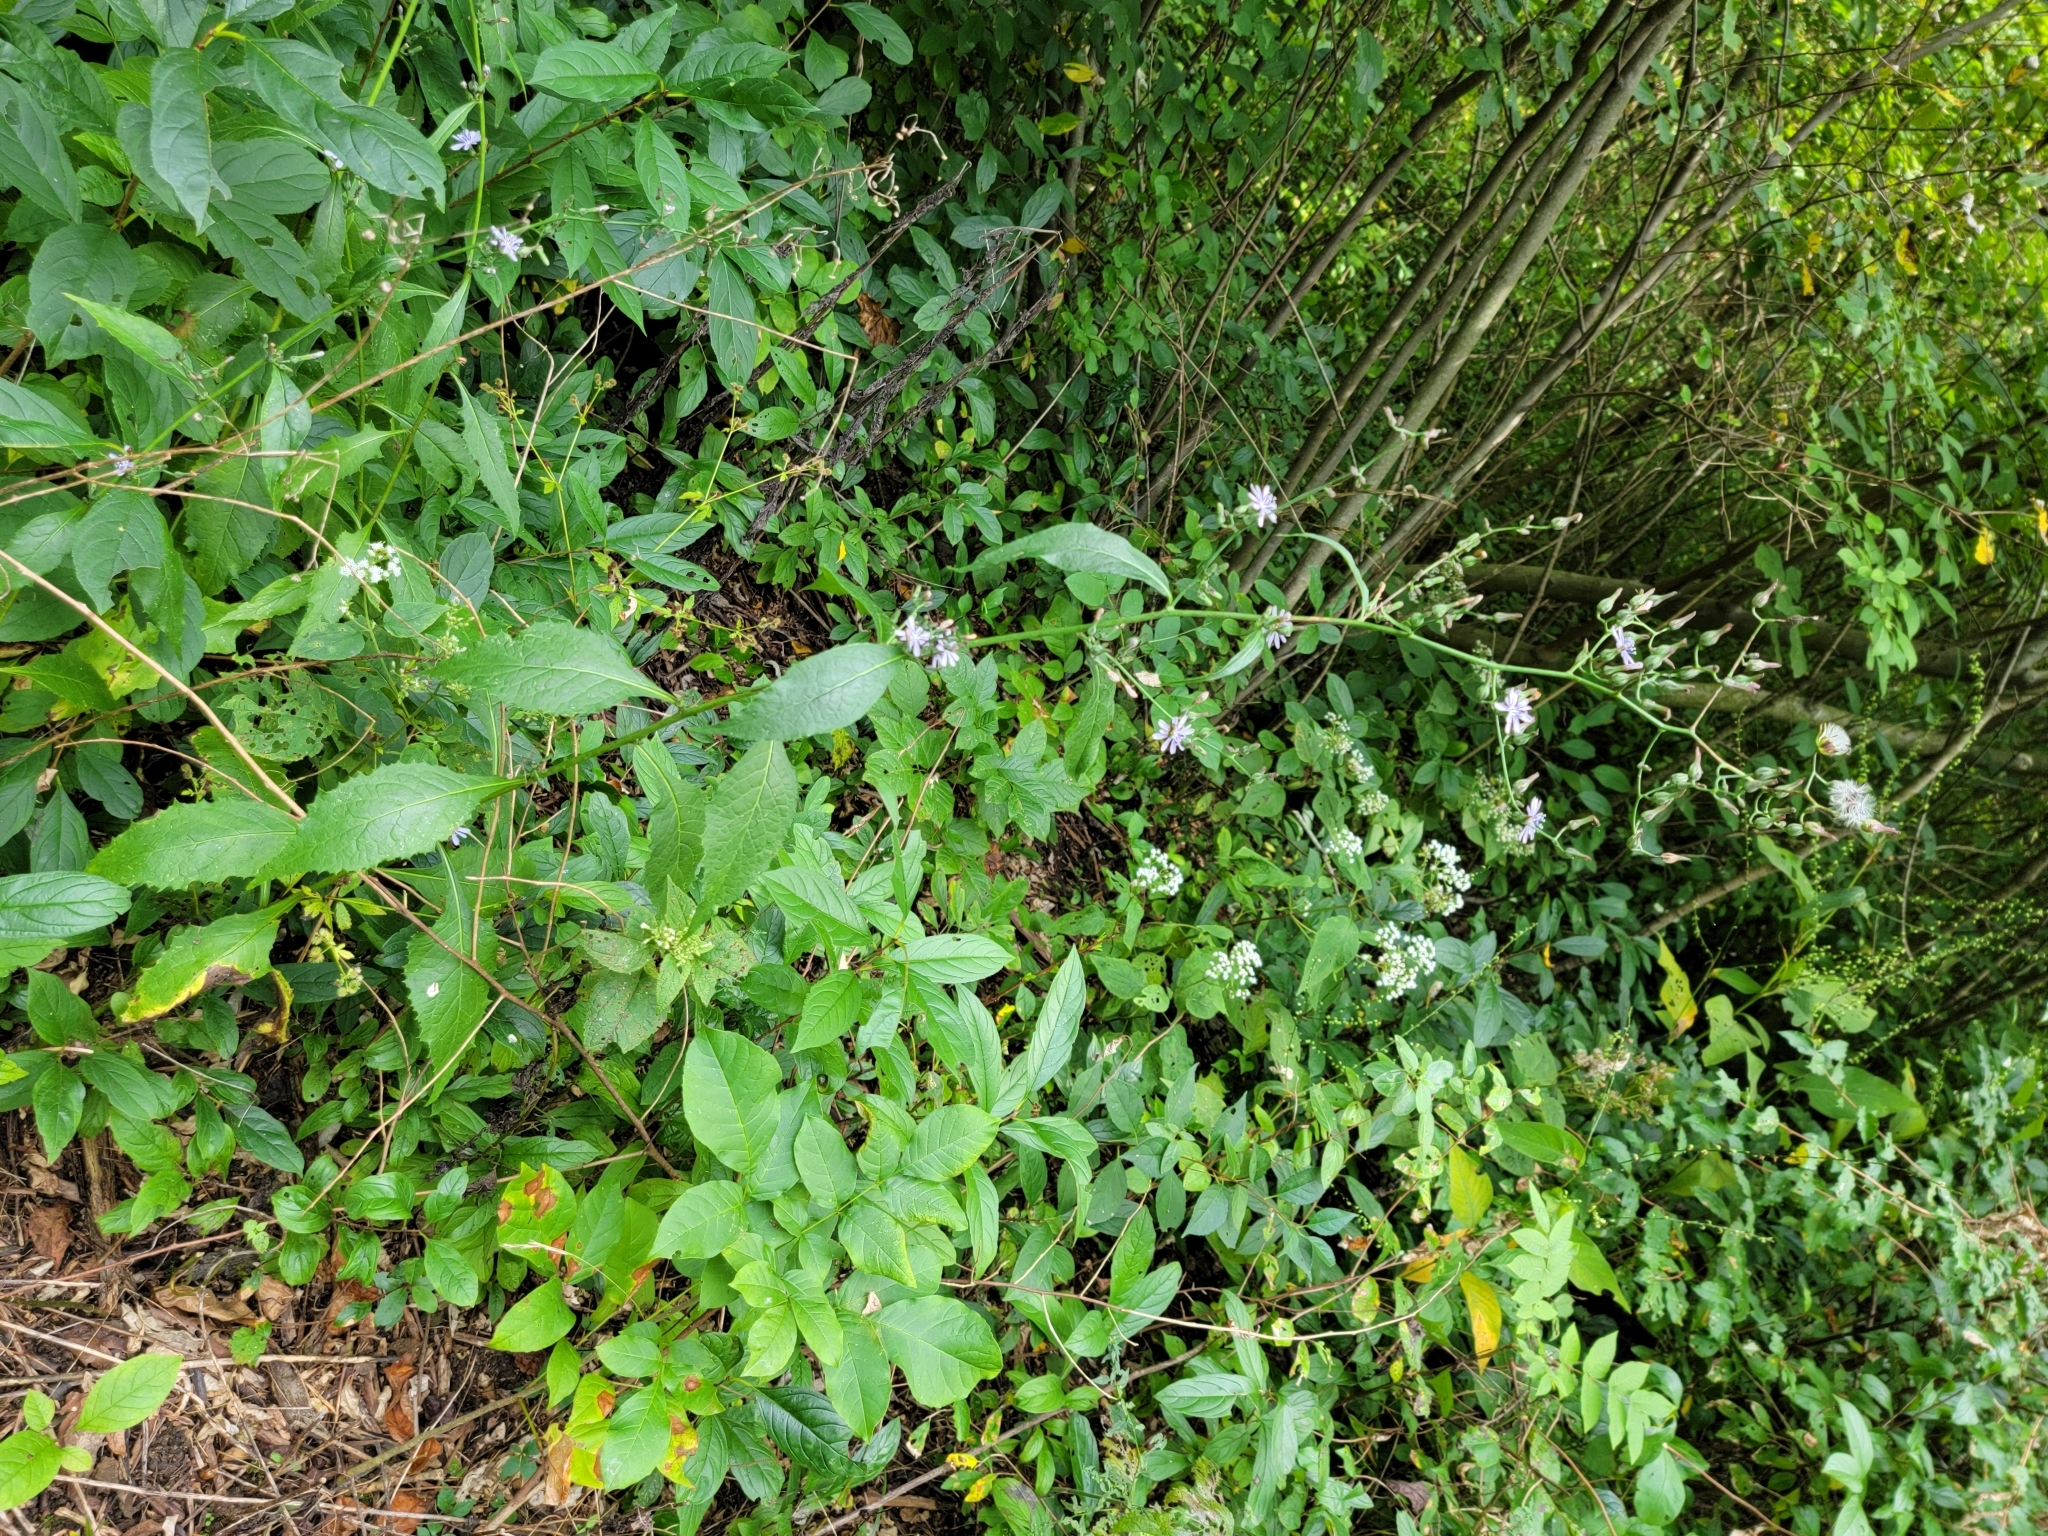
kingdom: Plantae
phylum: Tracheophyta
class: Magnoliopsida
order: Asterales
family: Asteraceae
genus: Lactuca
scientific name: Lactuca floridana
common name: Woodland lettuce
